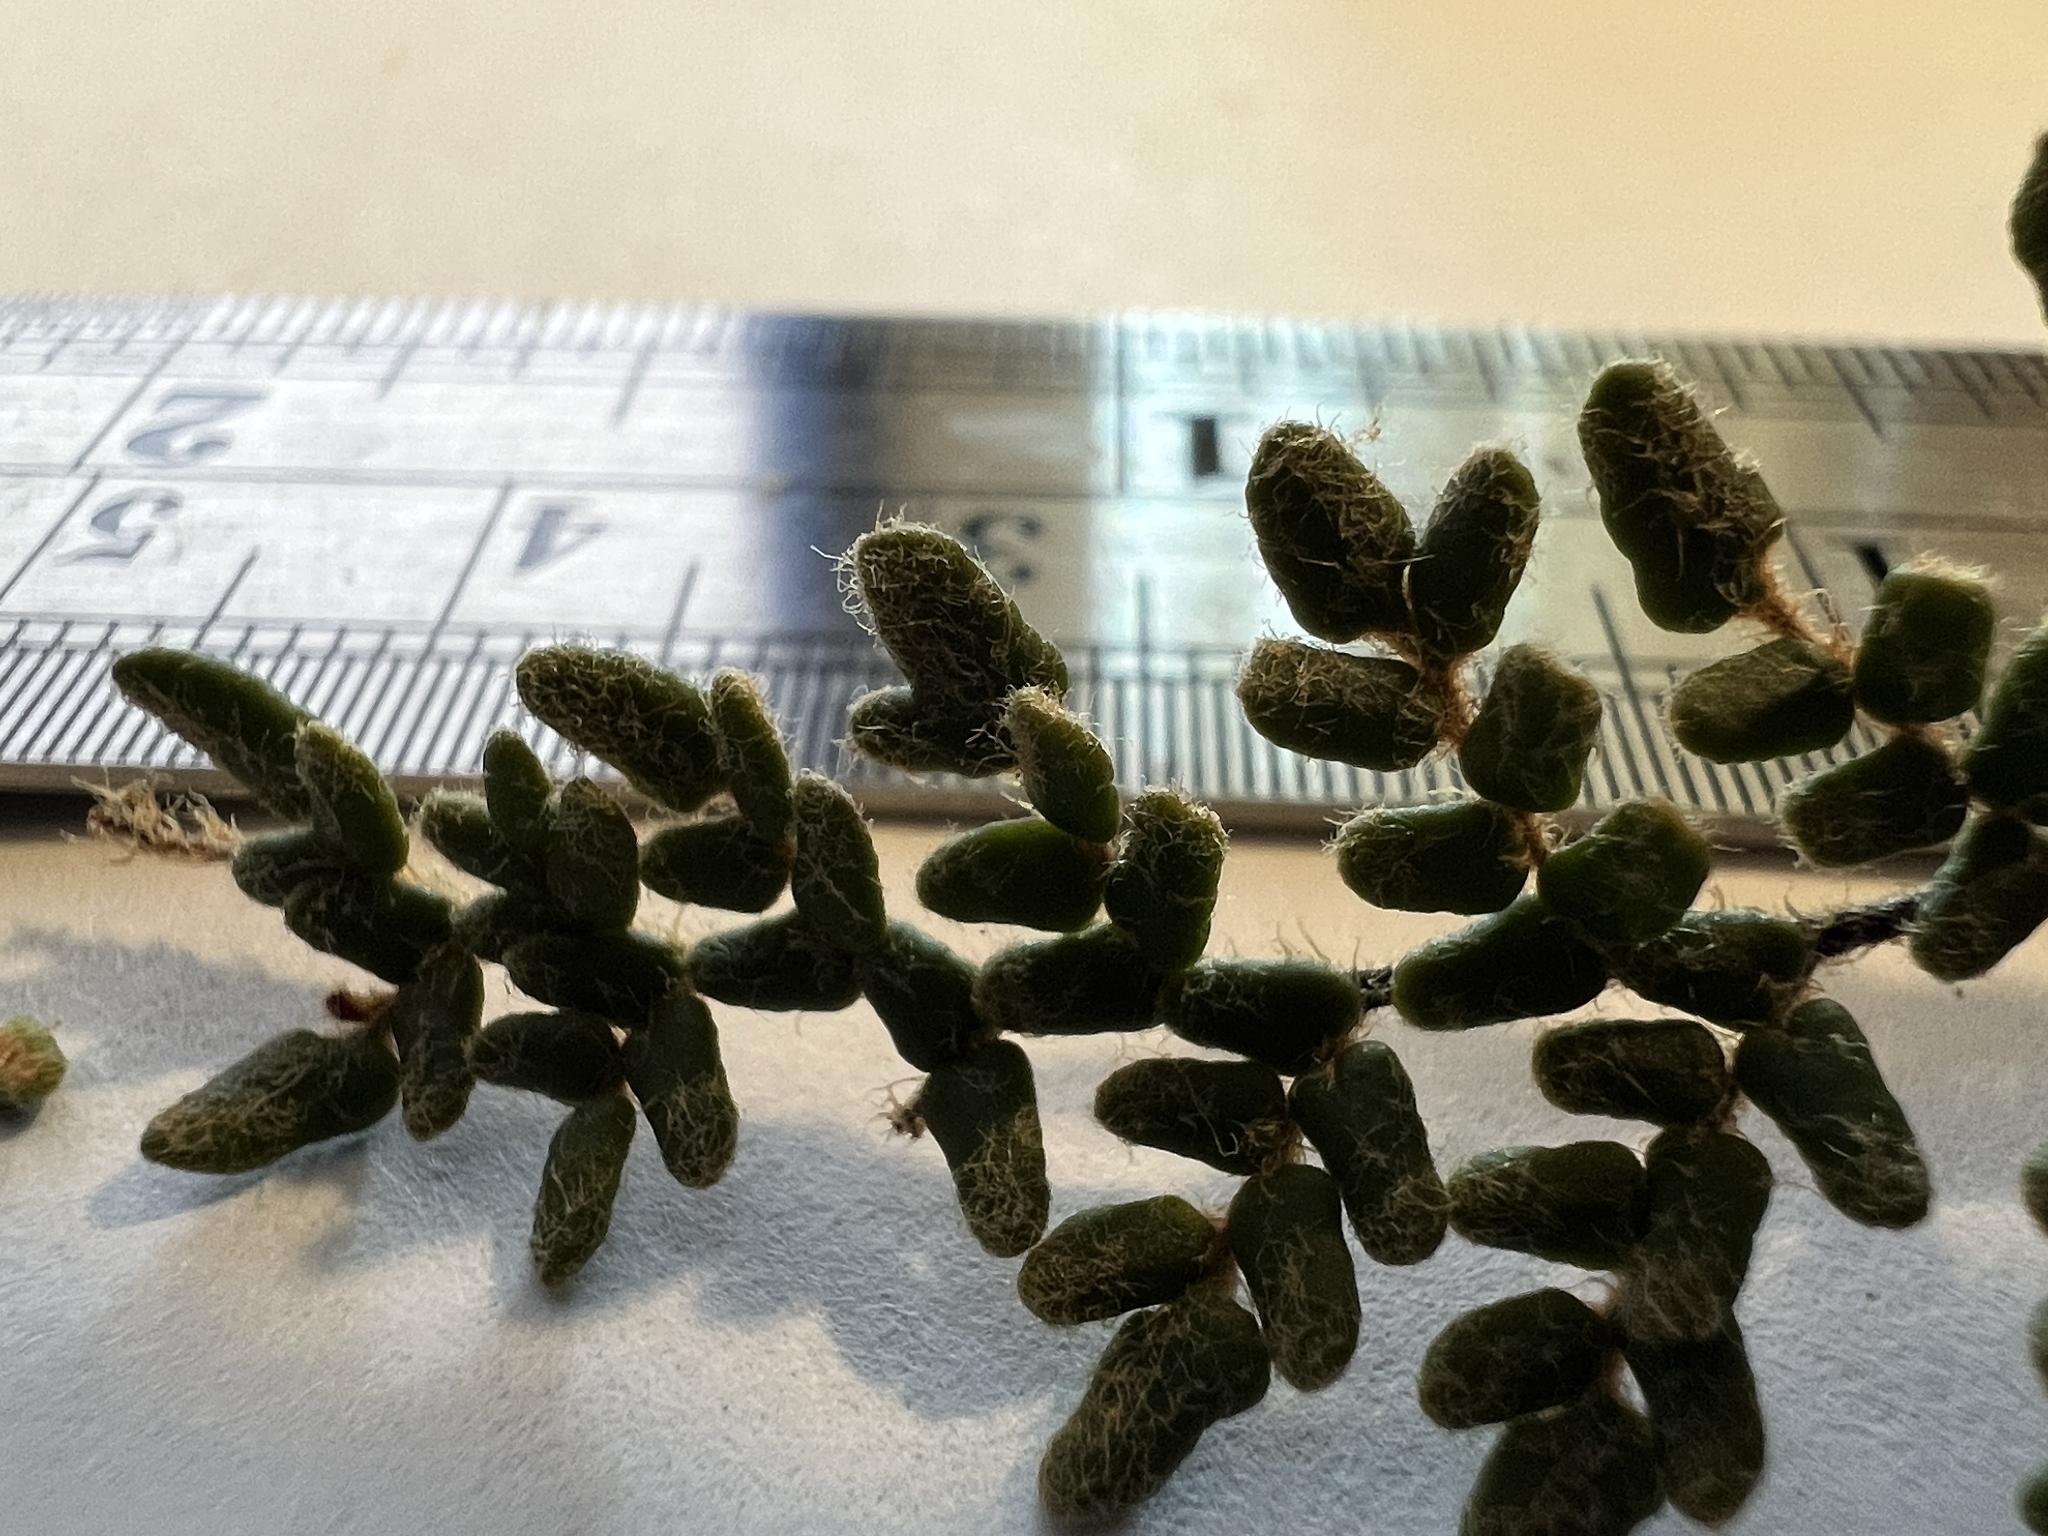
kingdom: Plantae
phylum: Tracheophyta
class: Polypodiopsida
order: Polypodiales
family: Pteridaceae
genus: Myriopteris
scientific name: Myriopteris gracillima
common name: Lace fern
